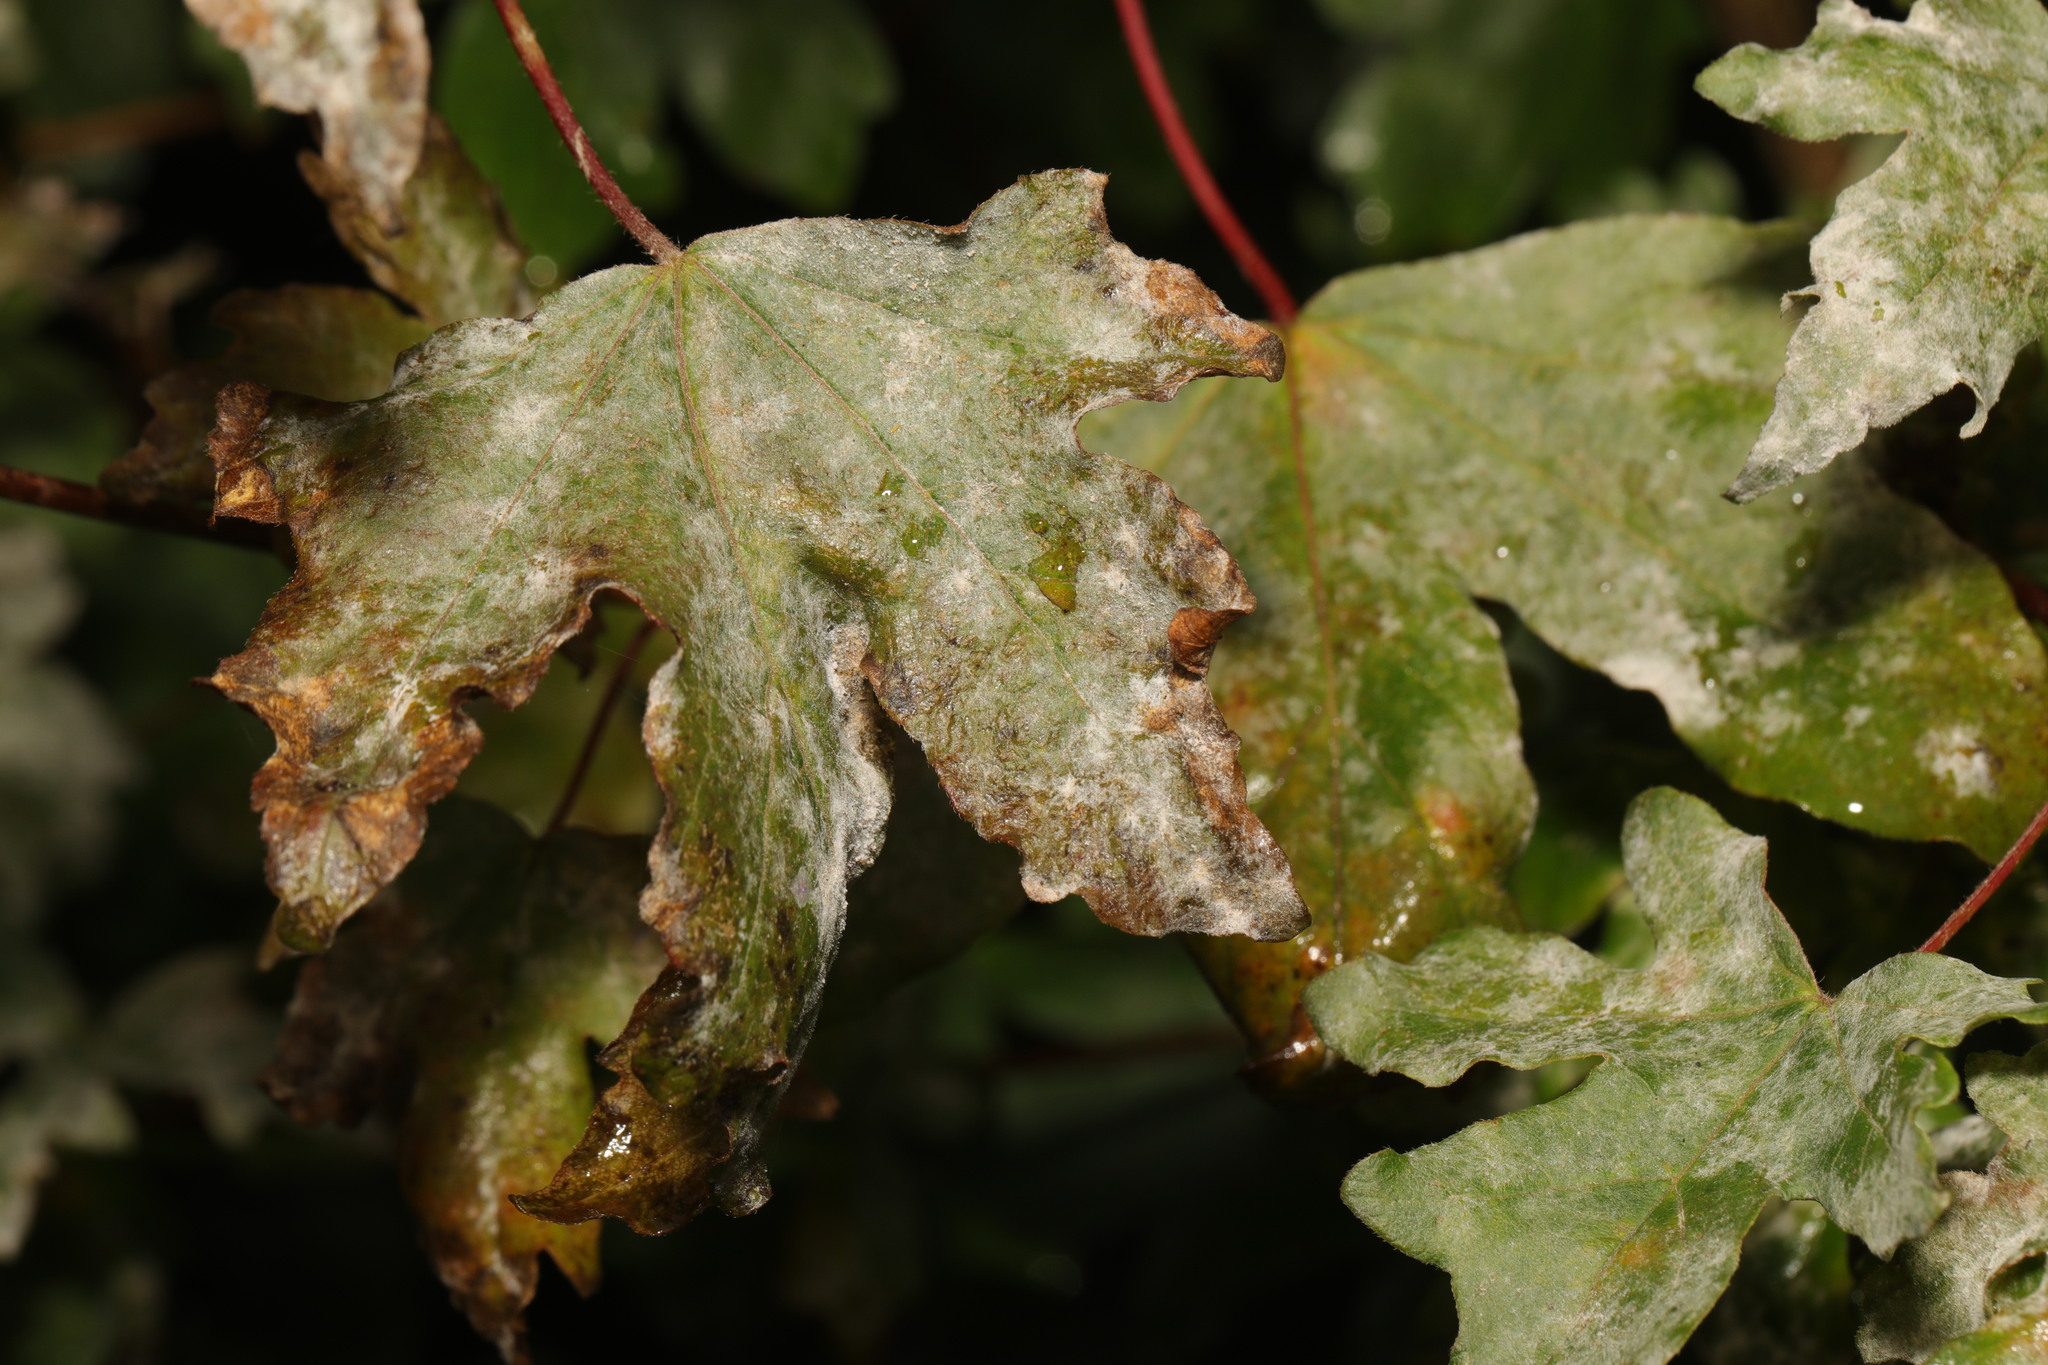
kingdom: Fungi
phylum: Ascomycota
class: Leotiomycetes
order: Helotiales
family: Erysiphaceae
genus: Sawadaea
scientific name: Sawadaea bicornis
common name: Maple mildew
